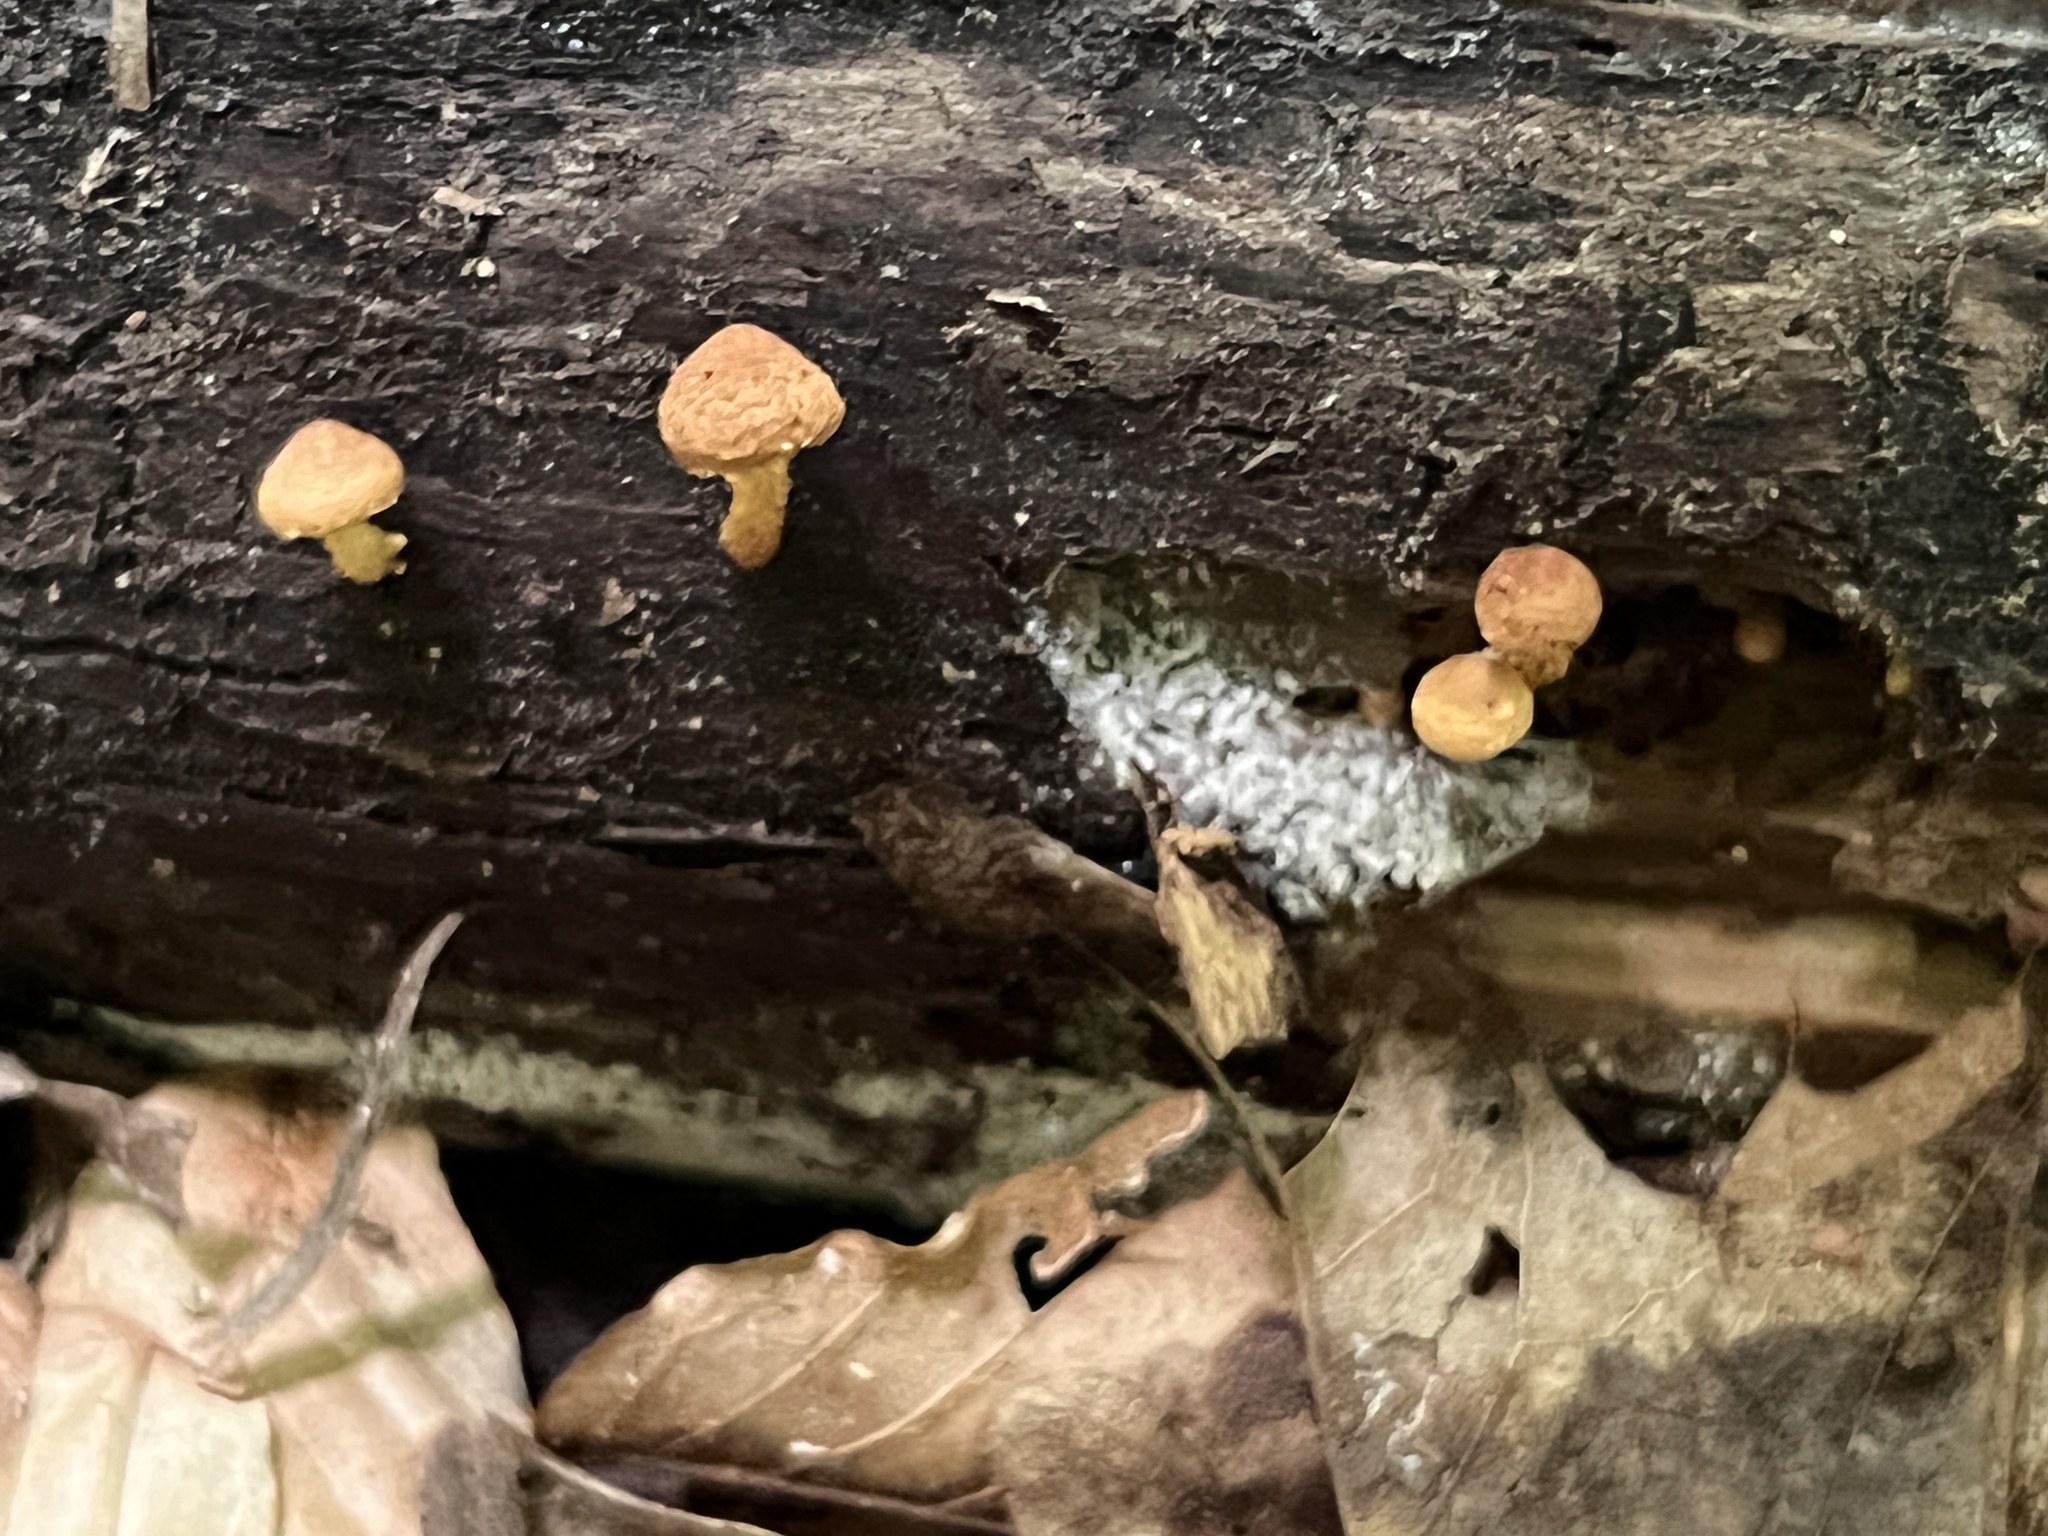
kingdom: Fungi
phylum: Basidiomycota
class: Agaricomycetes
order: Agaricales
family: Tubariaceae
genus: Phaeomarasmius
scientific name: Phaeomarasmius proximans
